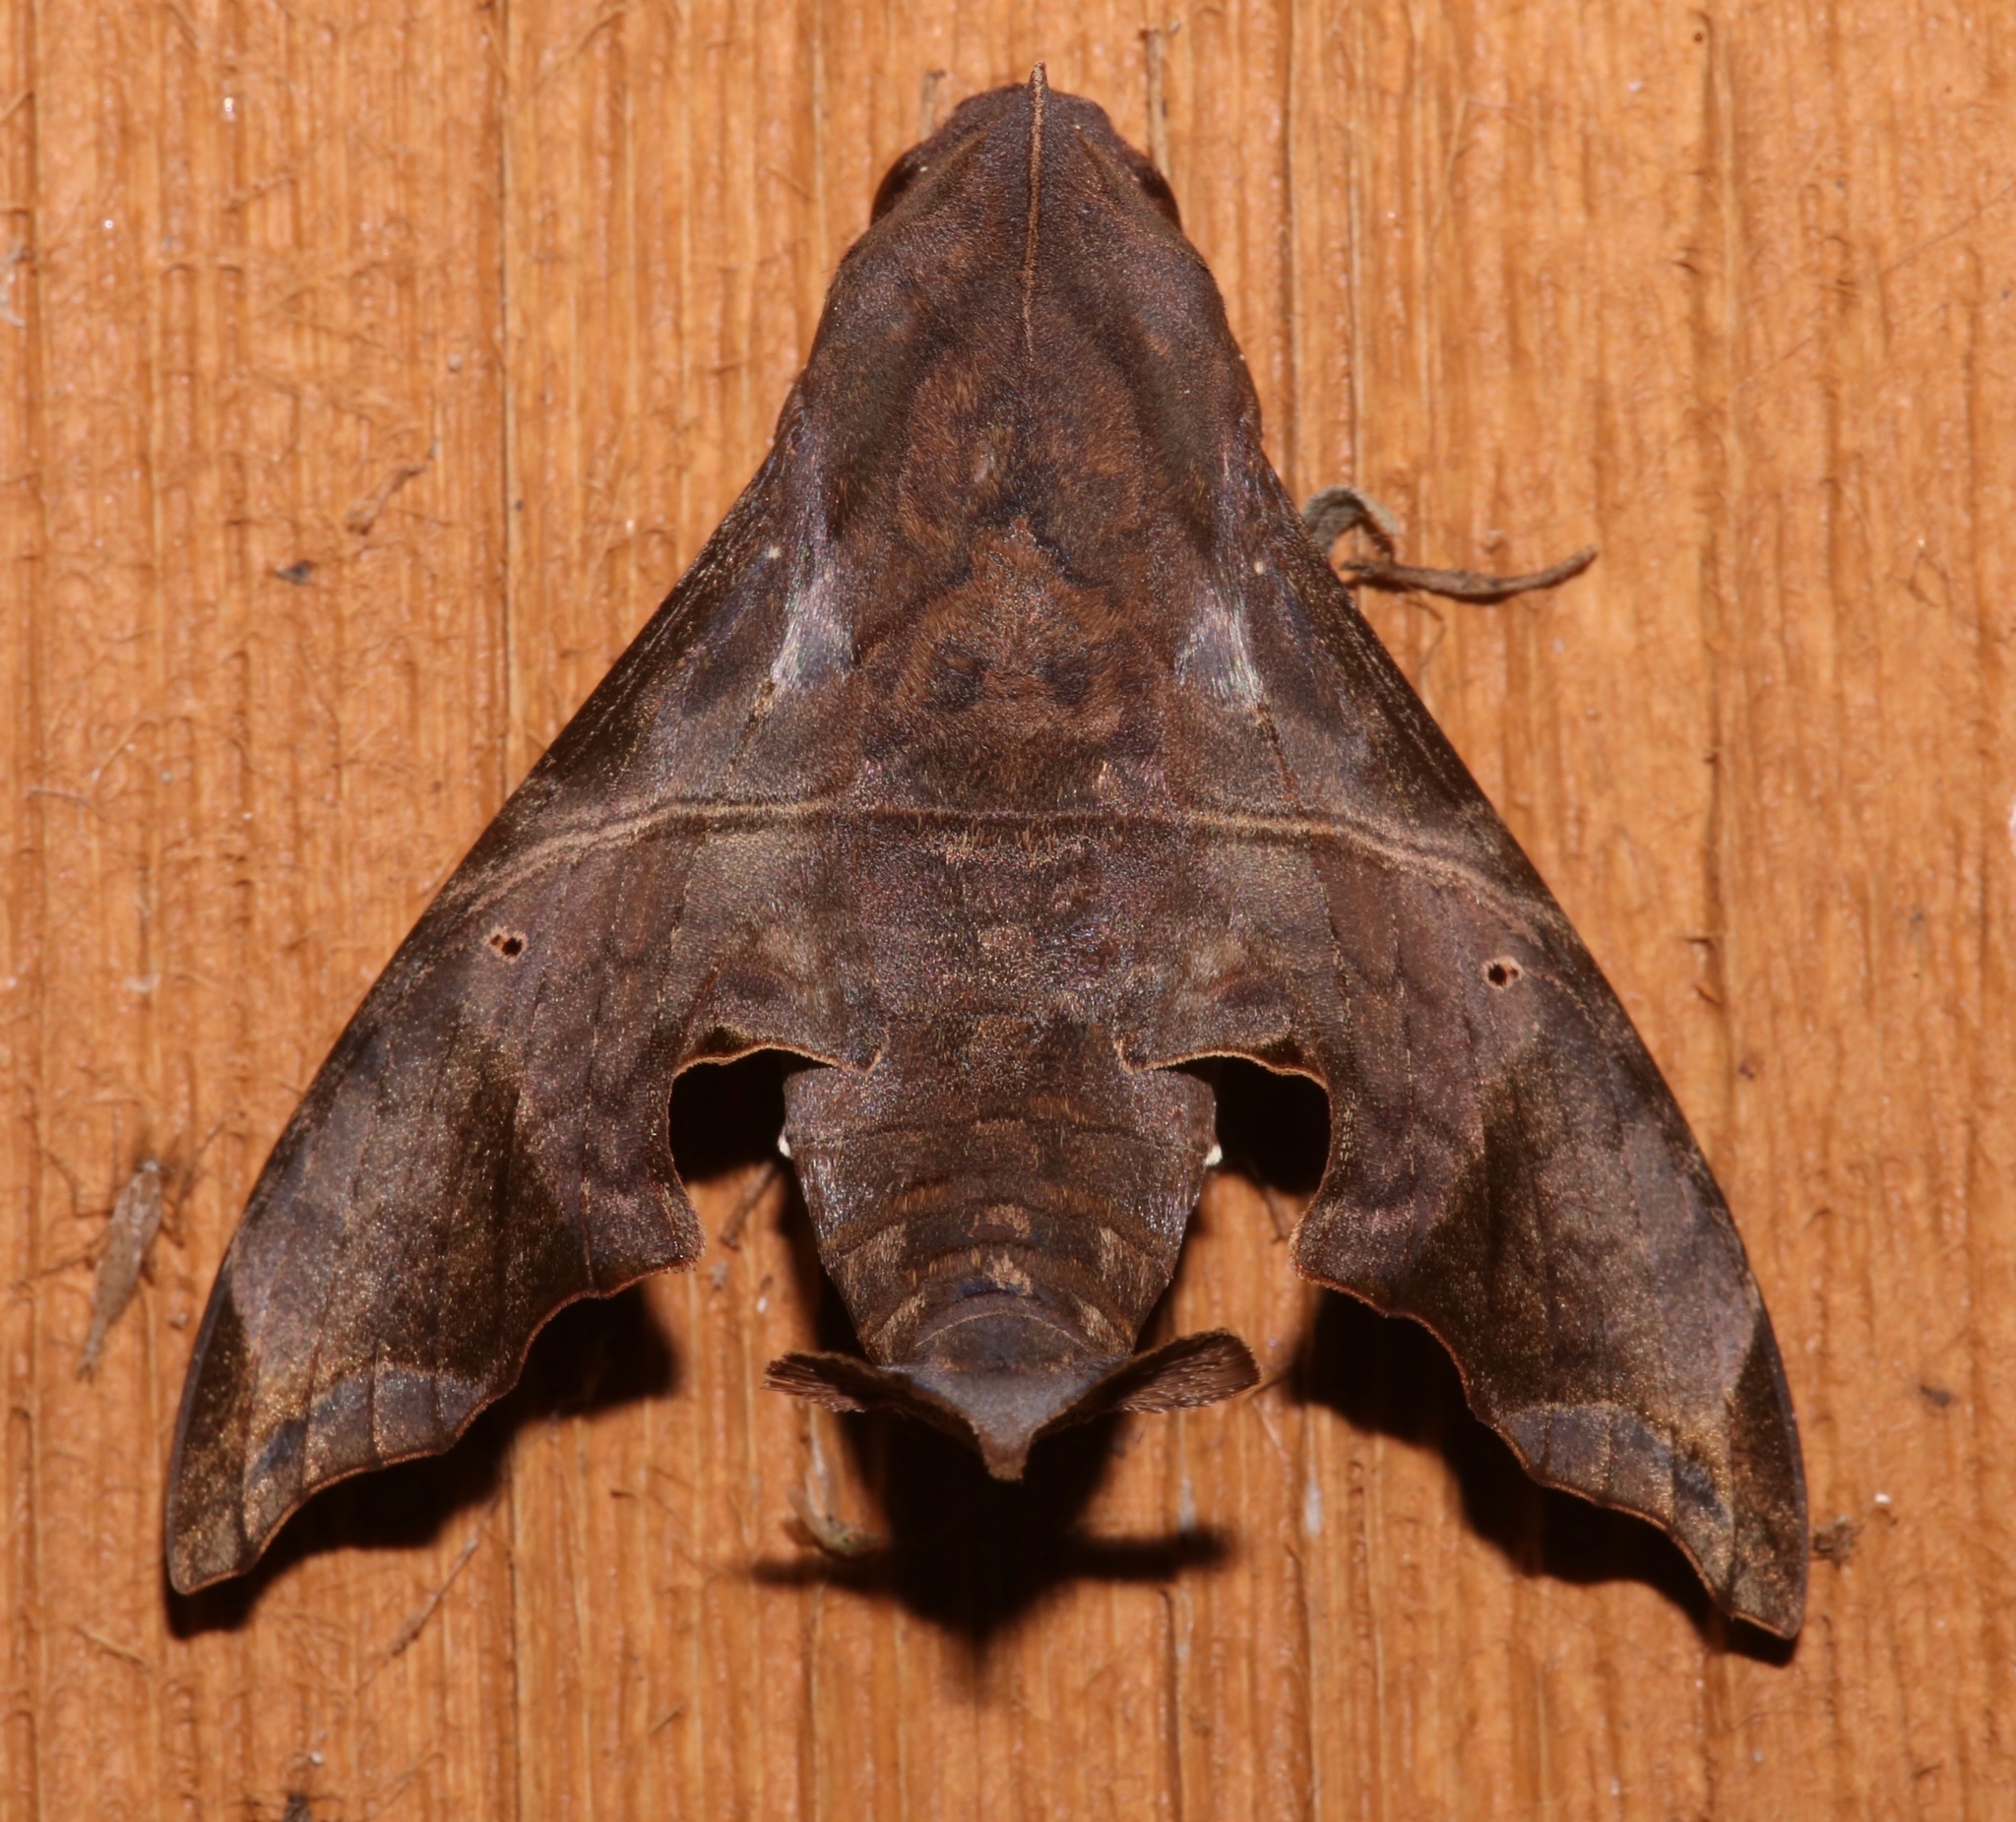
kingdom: Animalia
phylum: Arthropoda
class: Insecta
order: Lepidoptera
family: Sphingidae
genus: Enyo
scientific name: Enyo lugubris
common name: Mournful sphinx
